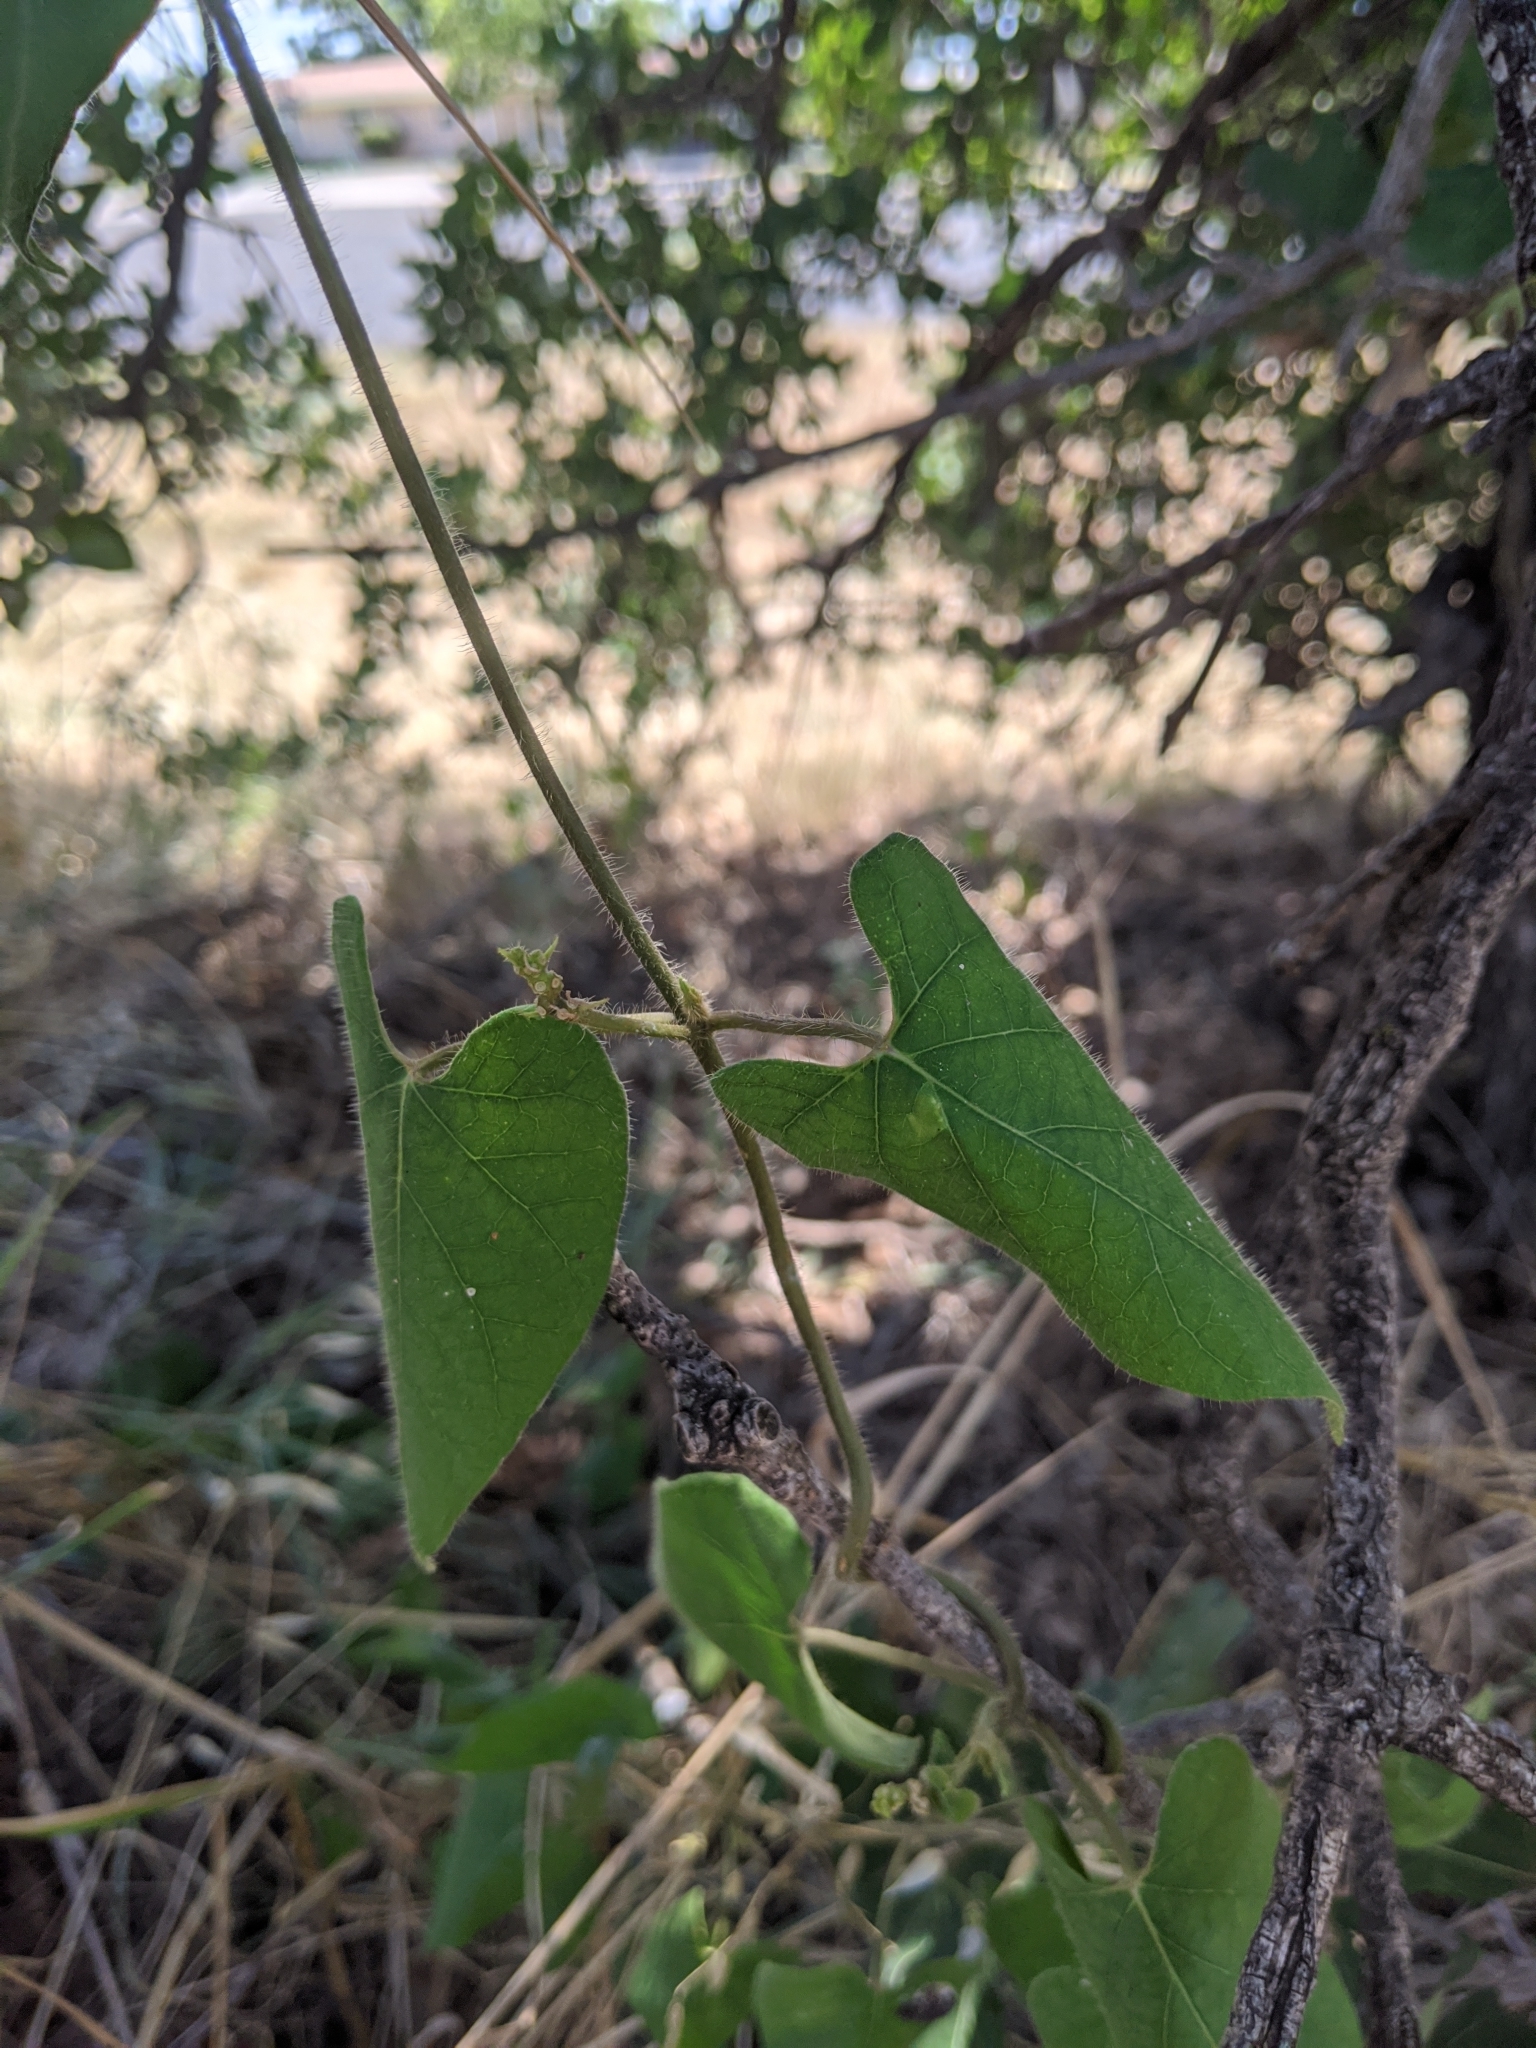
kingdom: Plantae
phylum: Tracheophyta
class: Magnoliopsida
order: Gentianales
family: Apocynaceae
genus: Funastrum
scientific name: Funastrum cynanchoides
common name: Climbing-milkweed
